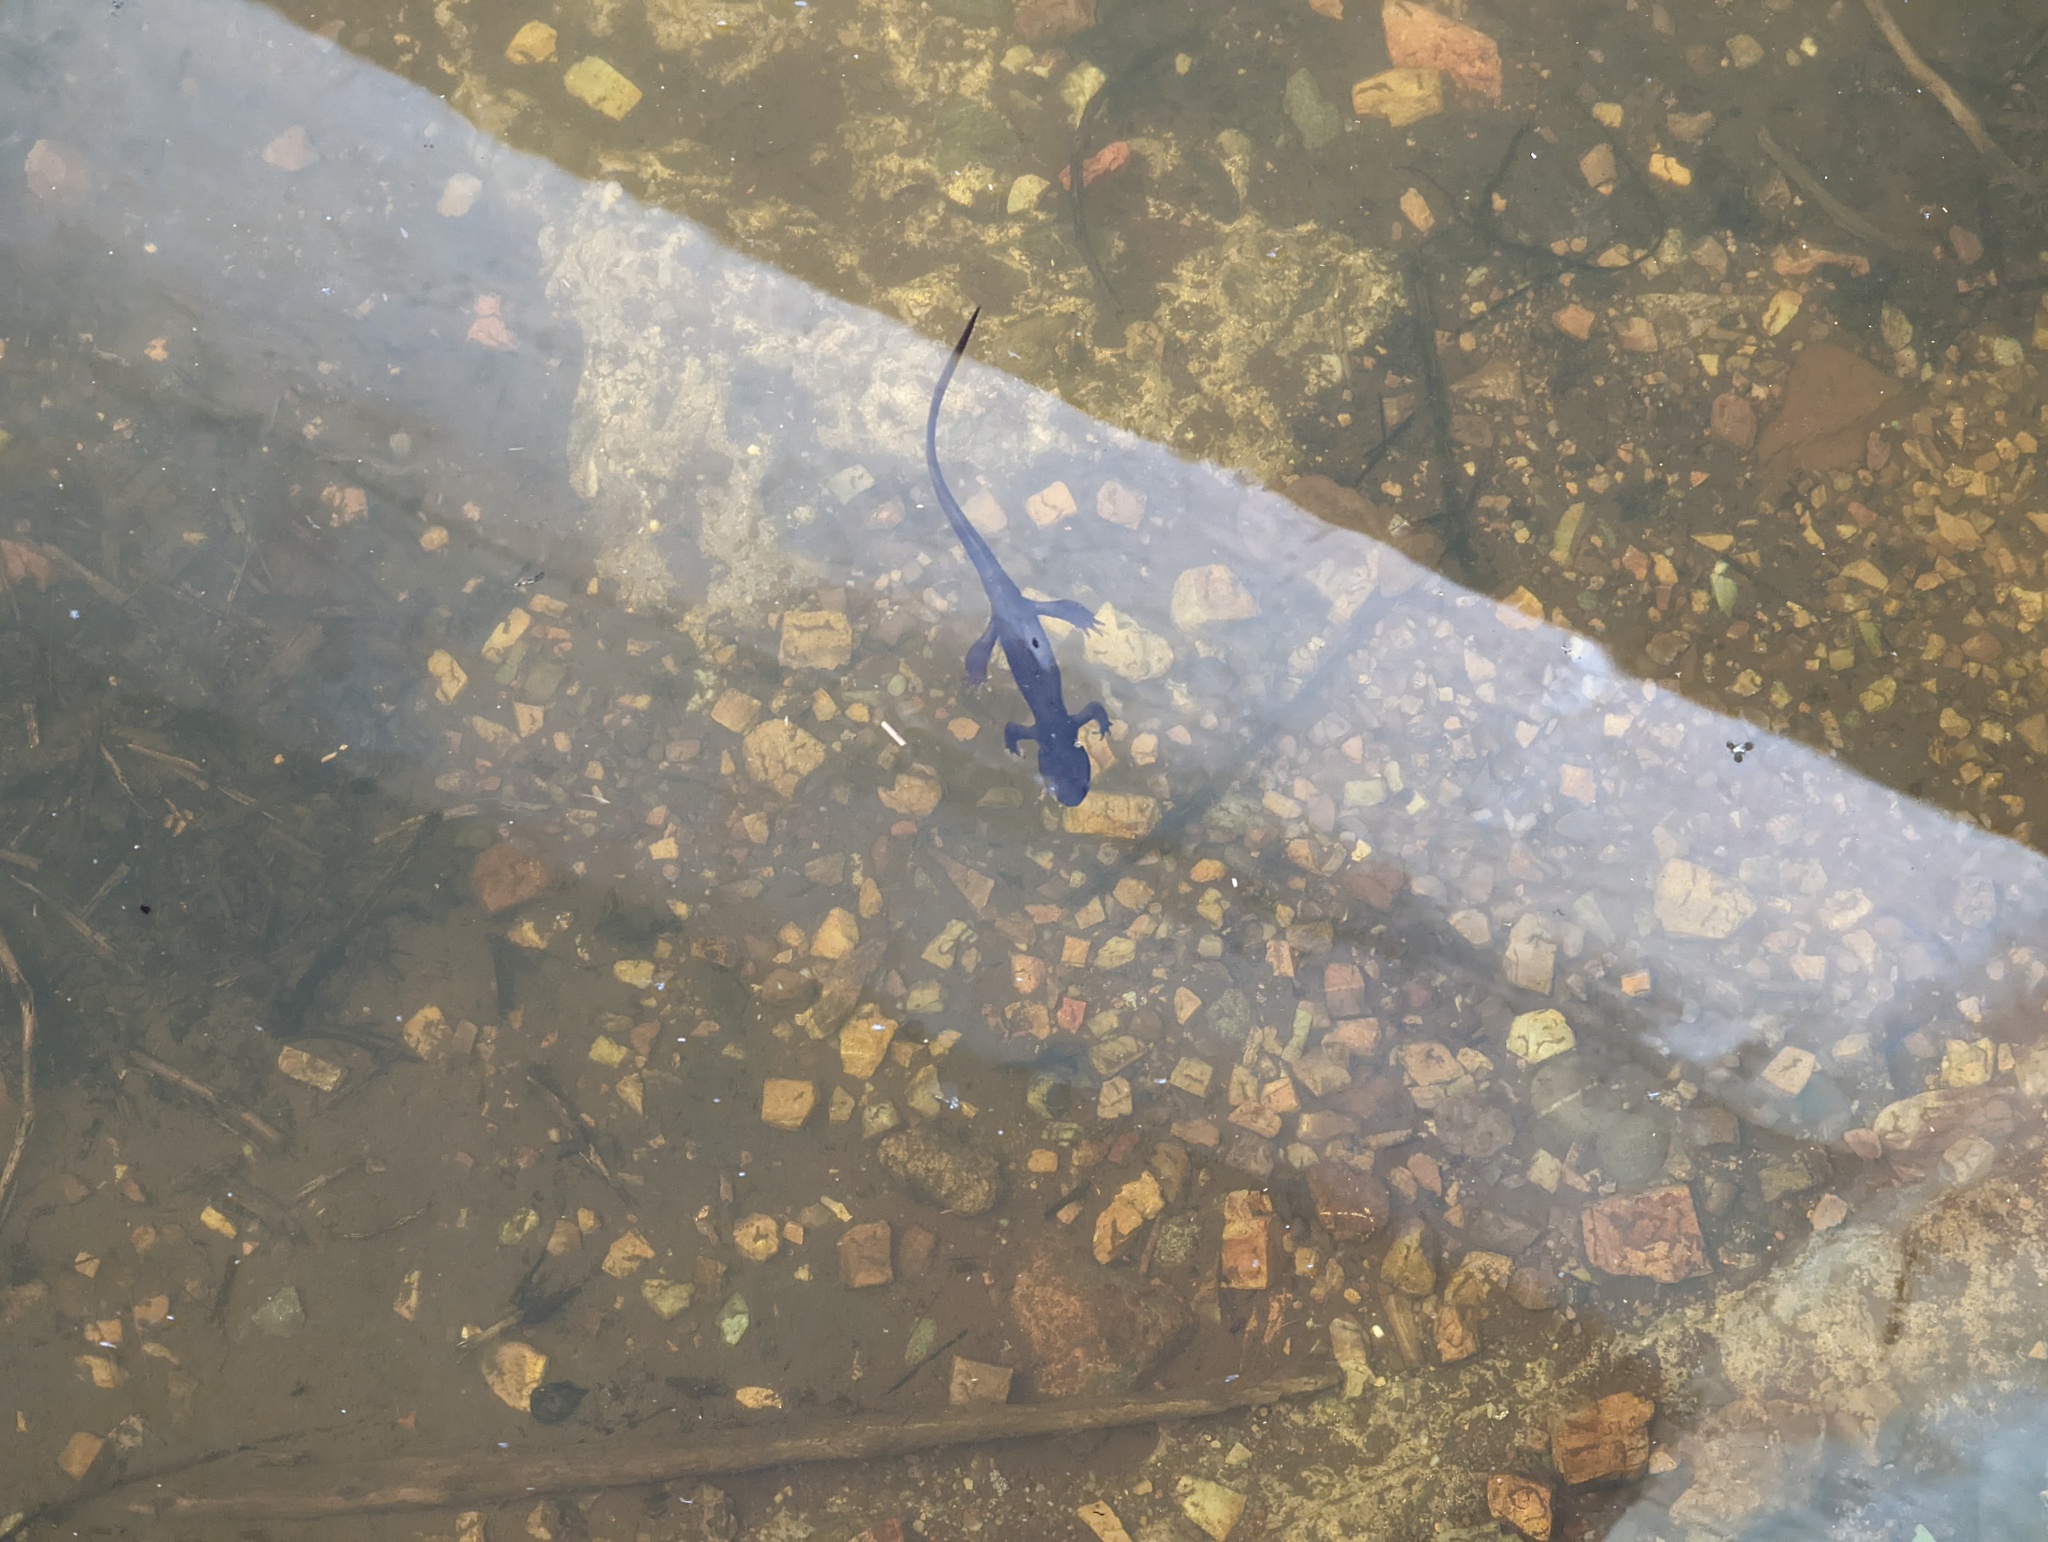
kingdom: Animalia
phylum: Chordata
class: Amphibia
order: Caudata
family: Salamandridae
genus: Taricha
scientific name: Taricha granulosa
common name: Roughskin newt
